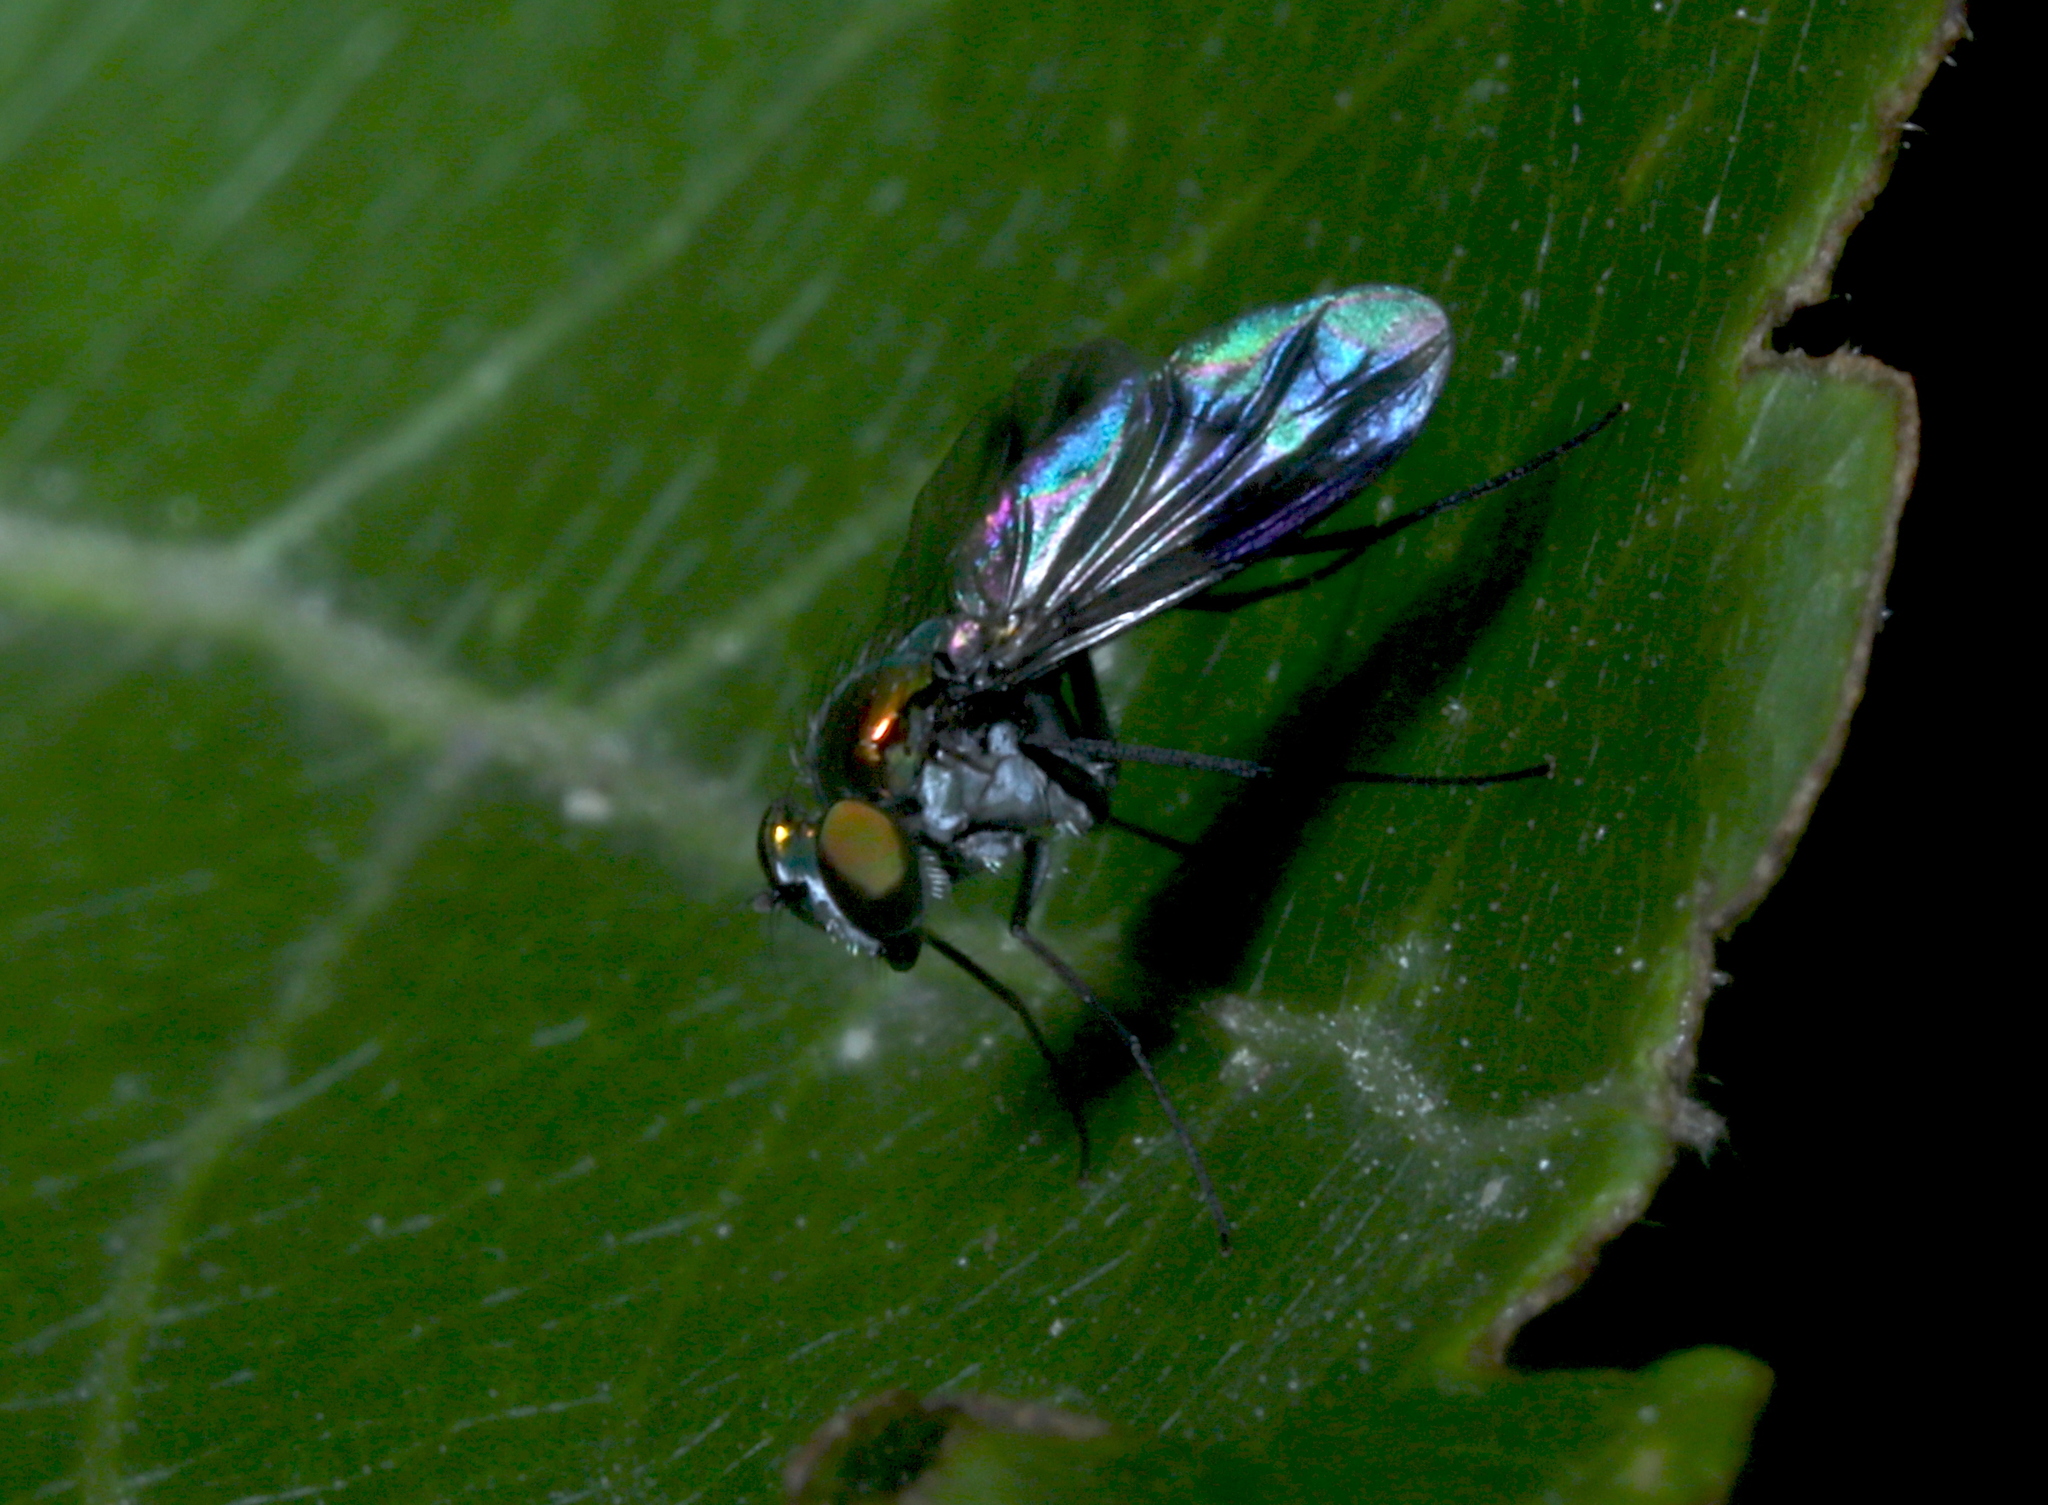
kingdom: Animalia
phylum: Arthropoda
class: Insecta
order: Diptera
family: Dolichopodidae
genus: Condylostylus
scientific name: Condylostylus patibulatus
